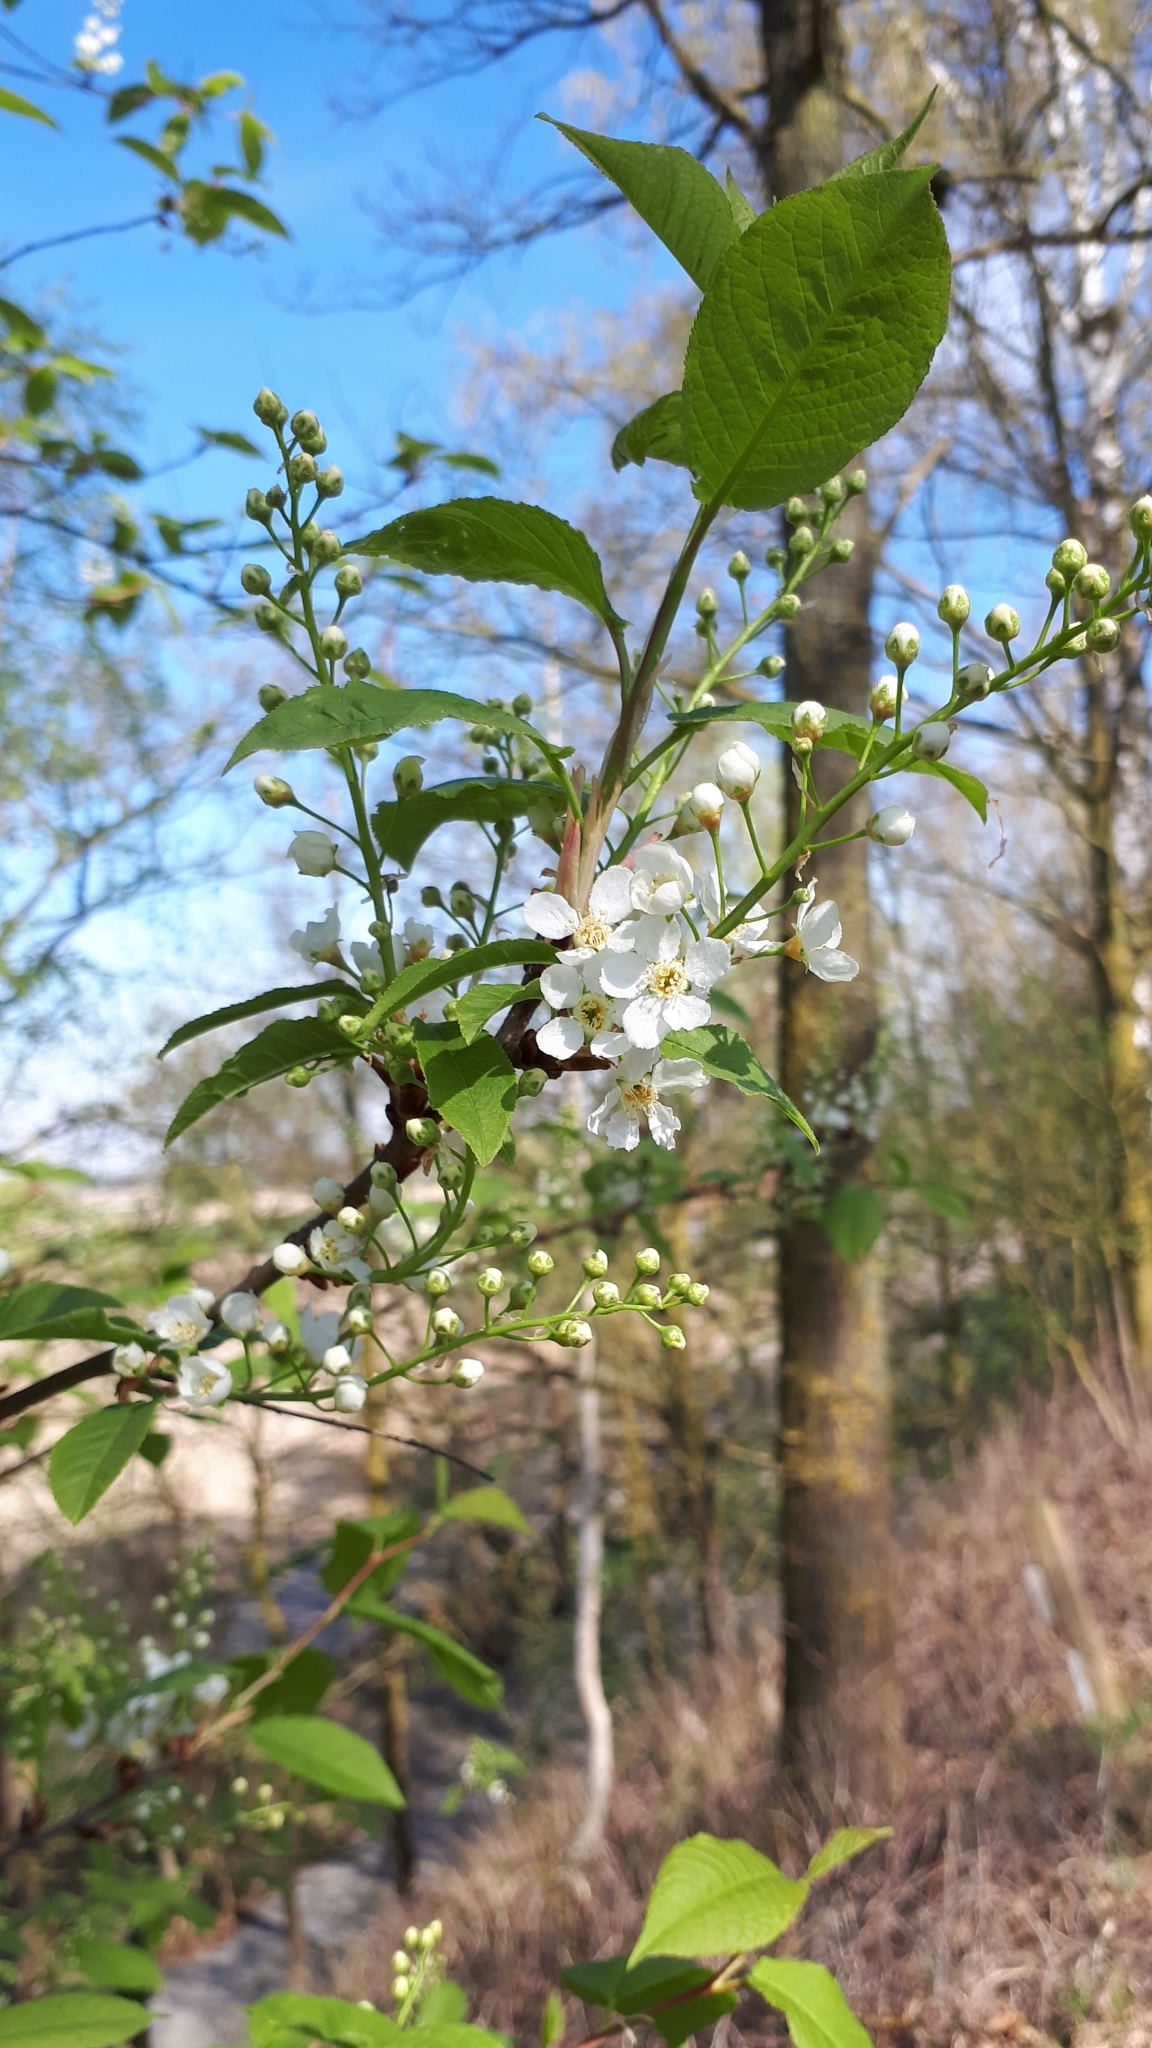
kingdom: Plantae
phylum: Tracheophyta
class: Magnoliopsida
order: Rosales
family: Rosaceae
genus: Prunus
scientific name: Prunus padus
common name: Bird cherry
